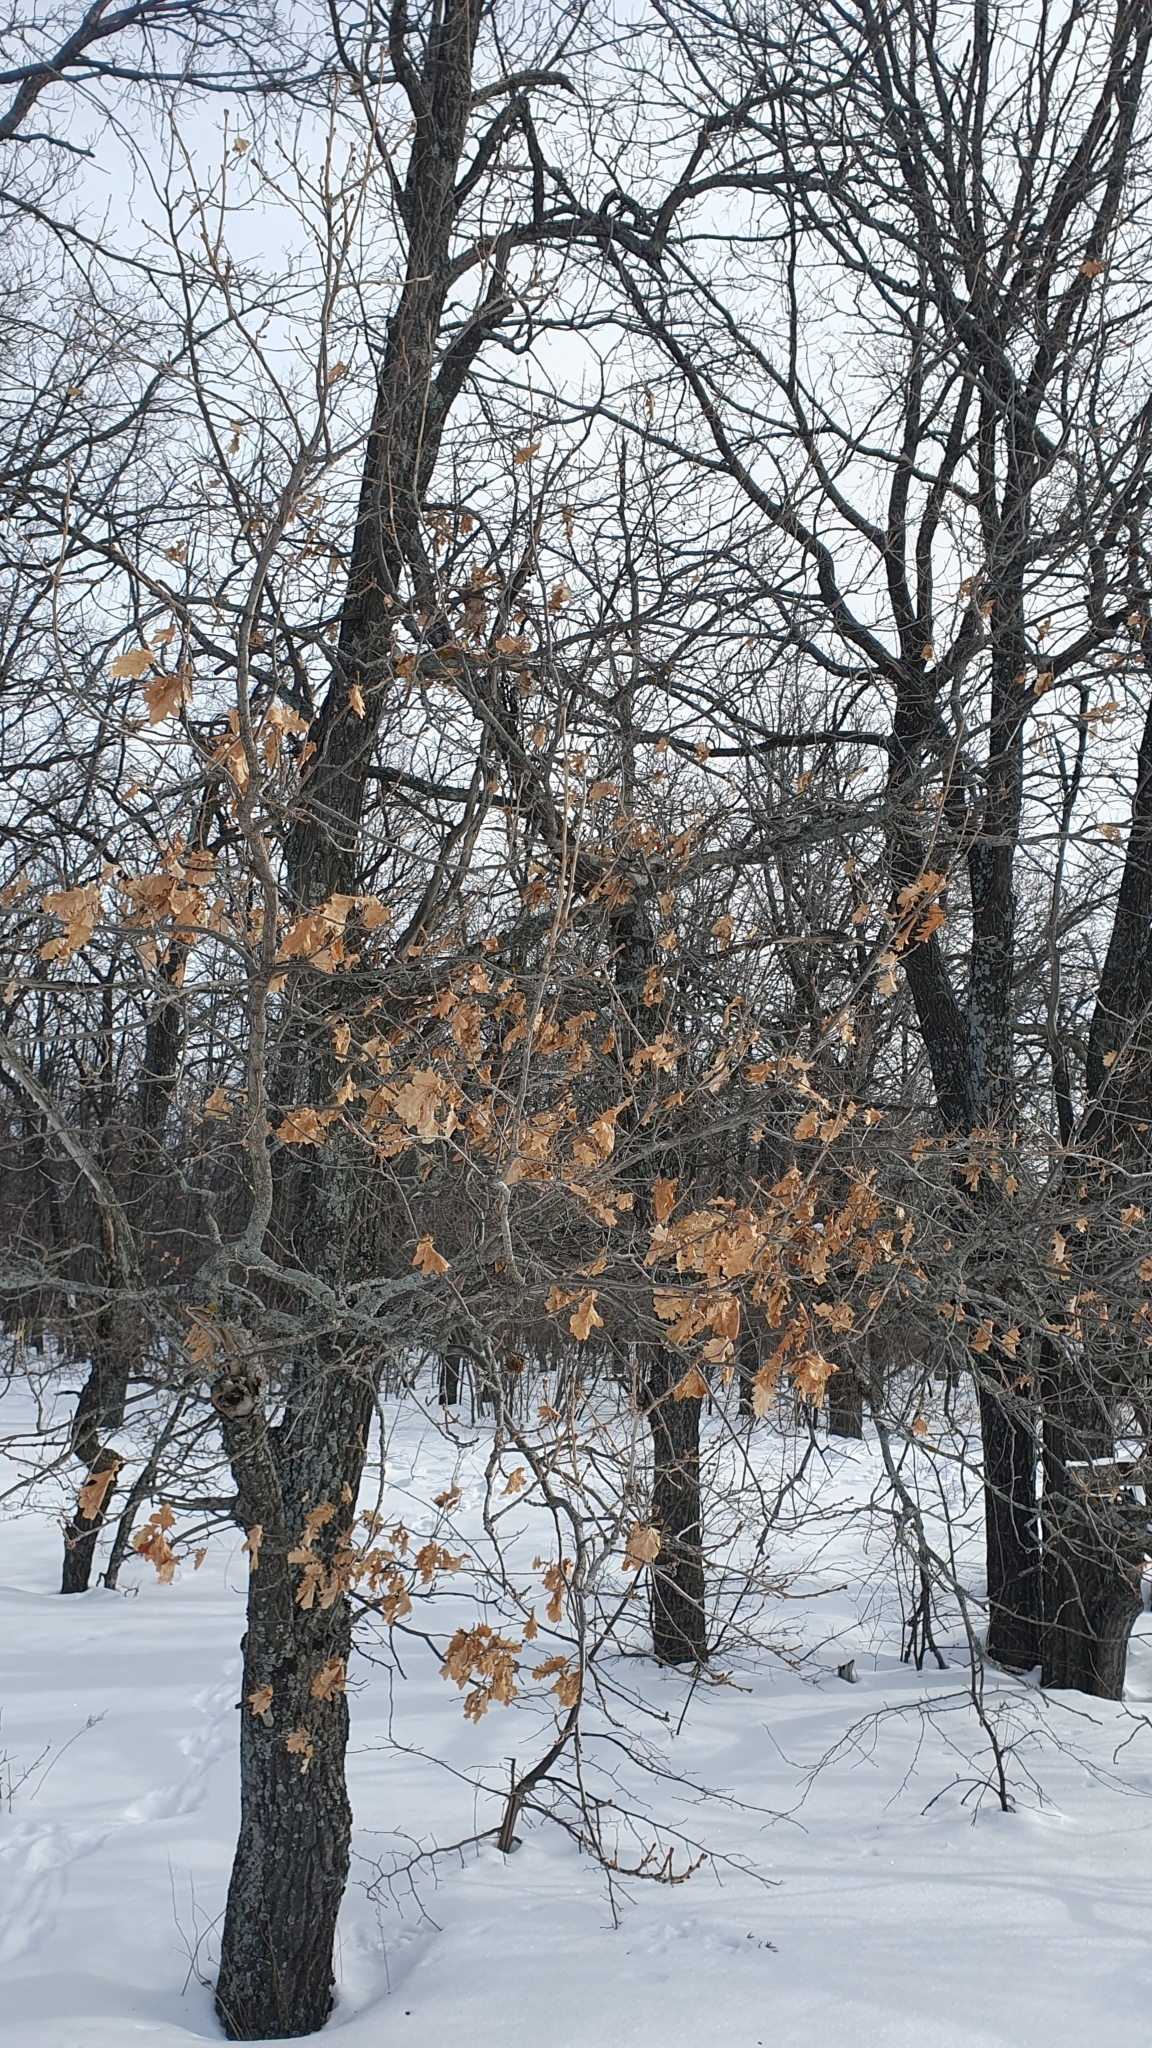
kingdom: Plantae
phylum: Tracheophyta
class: Magnoliopsida
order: Fagales
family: Fagaceae
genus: Quercus
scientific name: Quercus robur
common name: Pedunculate oak
